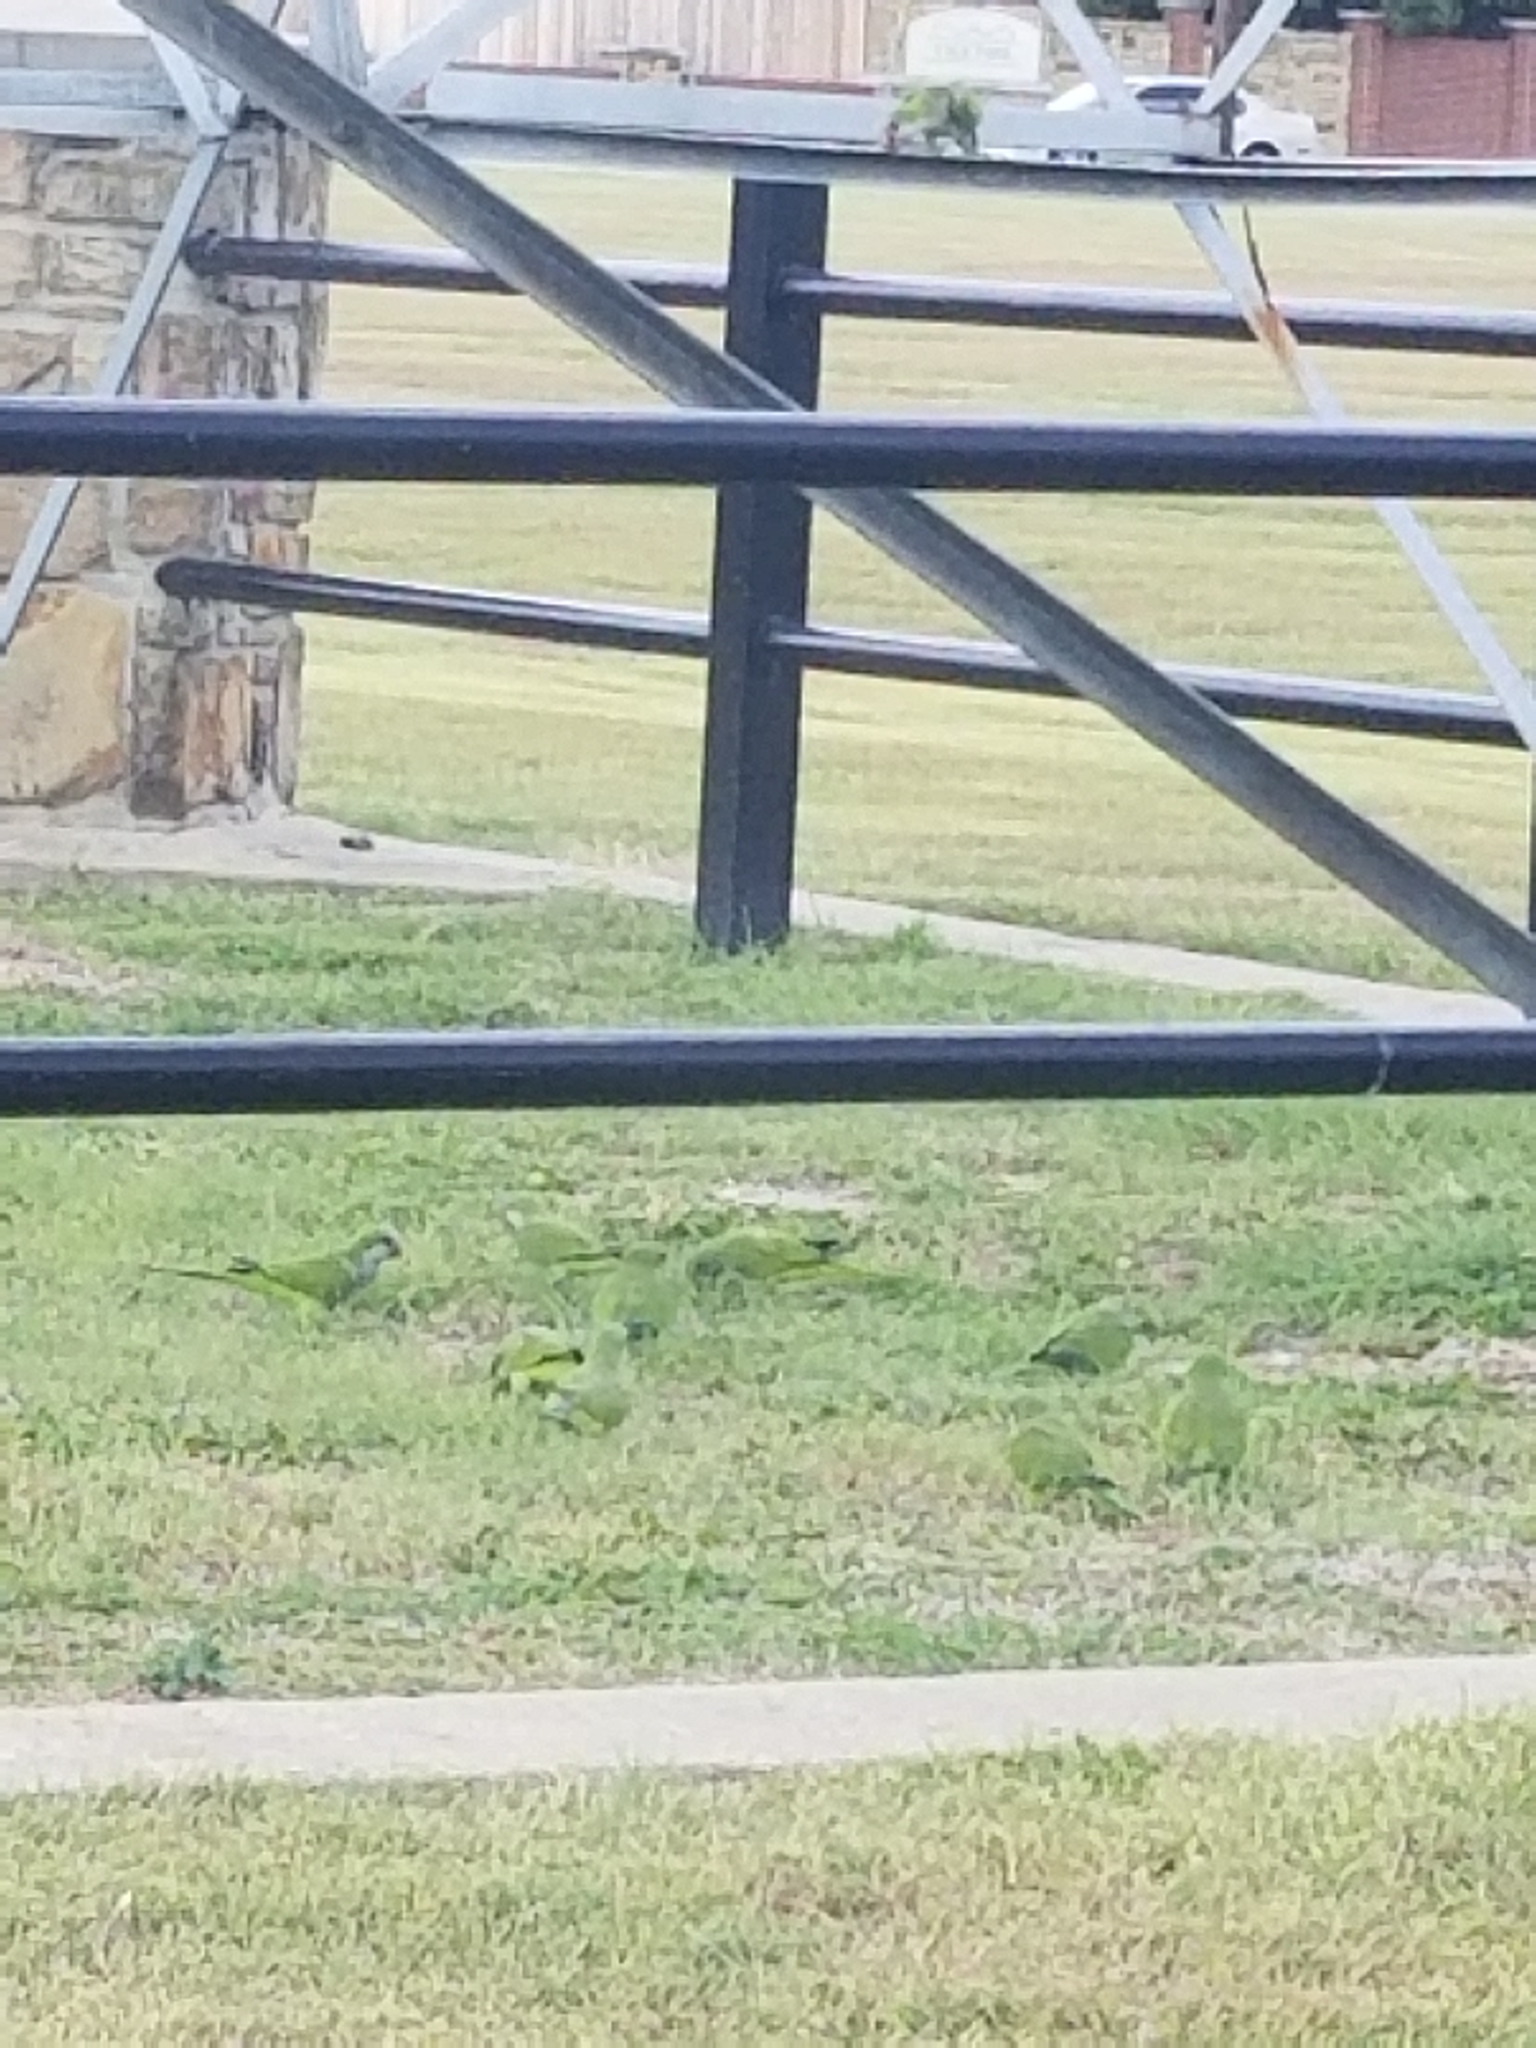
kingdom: Animalia
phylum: Chordata
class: Aves
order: Psittaciformes
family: Psittacidae
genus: Myiopsitta
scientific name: Myiopsitta monachus
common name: Monk parakeet
